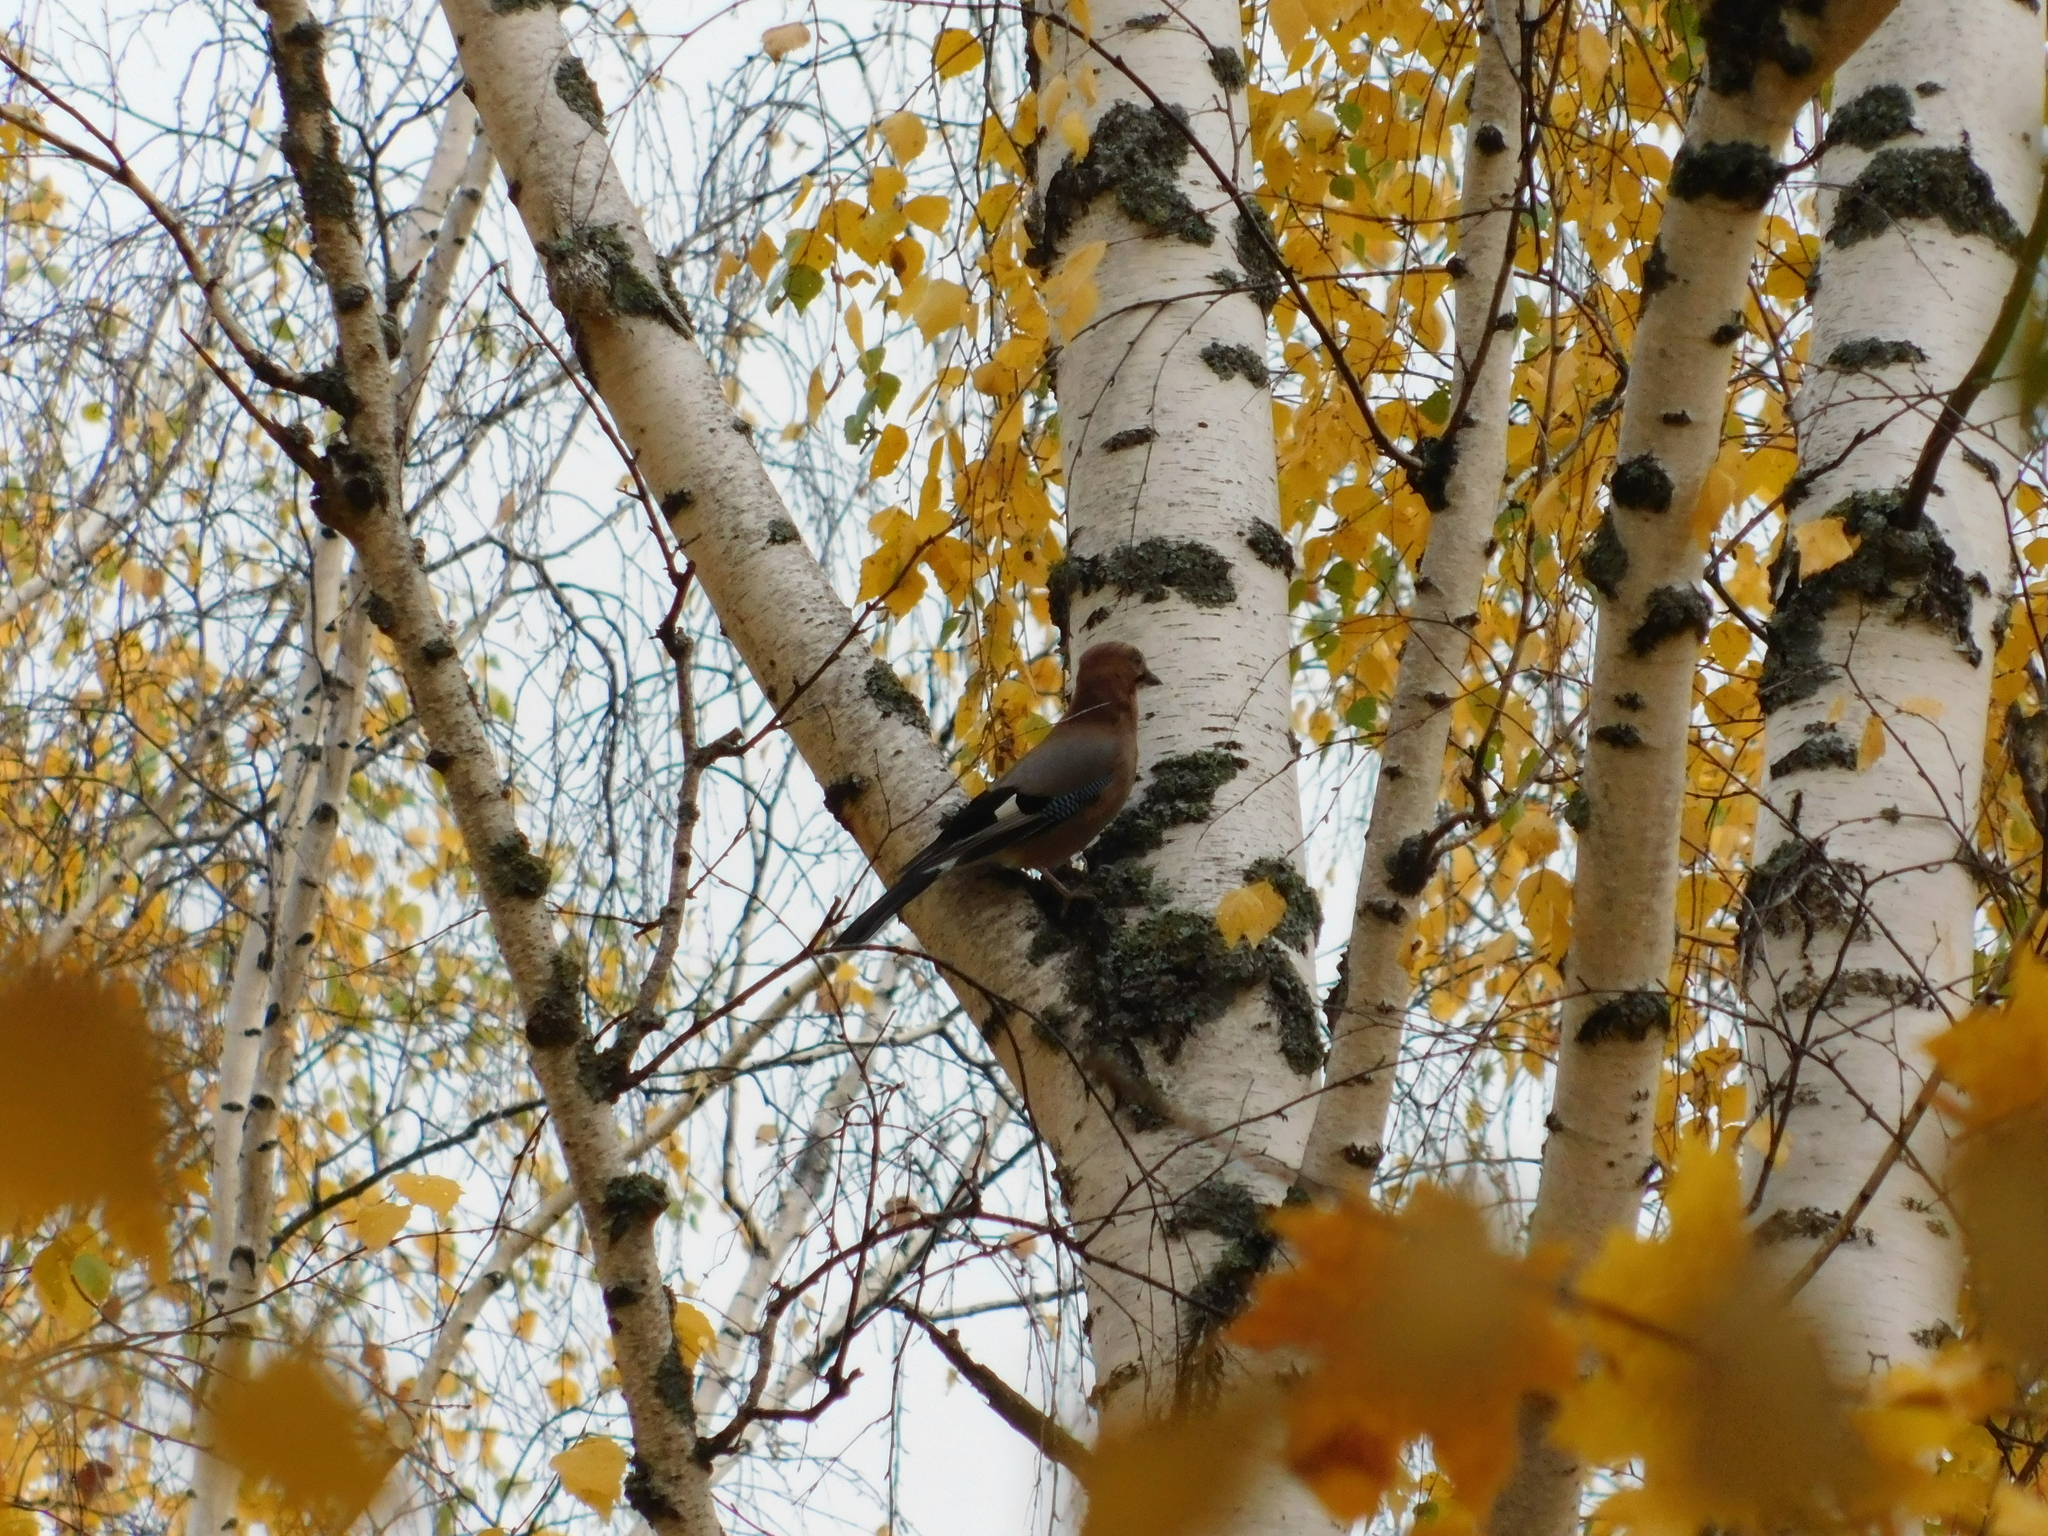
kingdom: Animalia
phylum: Chordata
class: Aves
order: Passeriformes
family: Corvidae
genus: Garrulus
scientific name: Garrulus glandarius
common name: Eurasian jay
